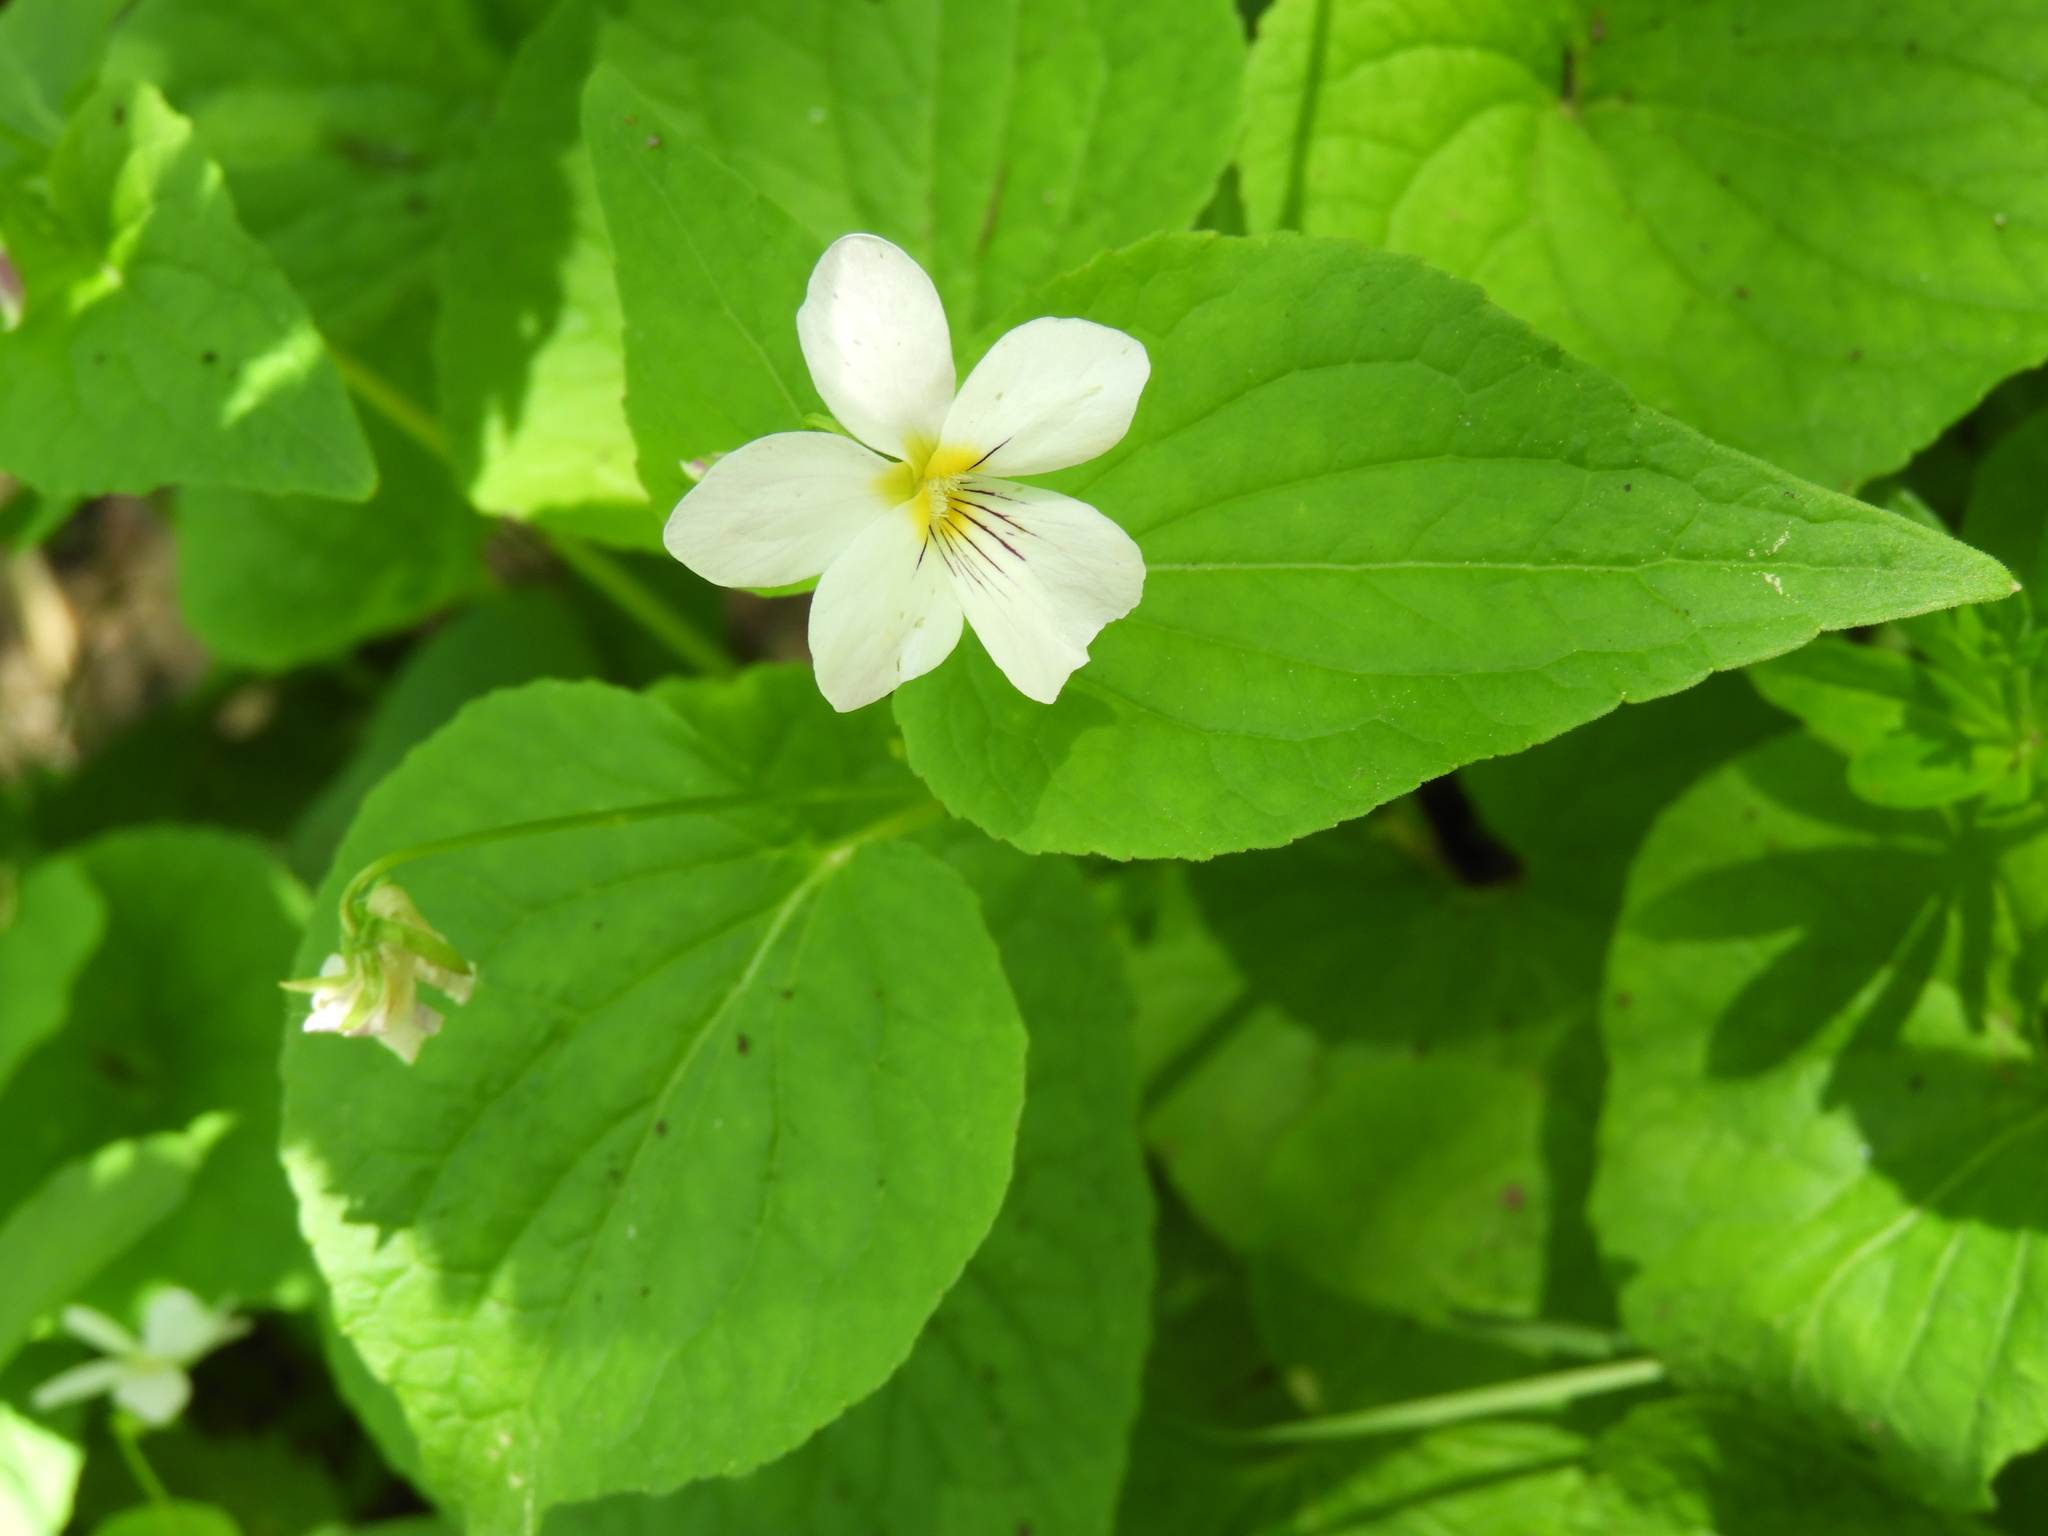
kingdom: Plantae
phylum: Tracheophyta
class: Magnoliopsida
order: Malpighiales
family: Violaceae
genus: Viola
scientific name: Viola canadensis
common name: Canada violet
